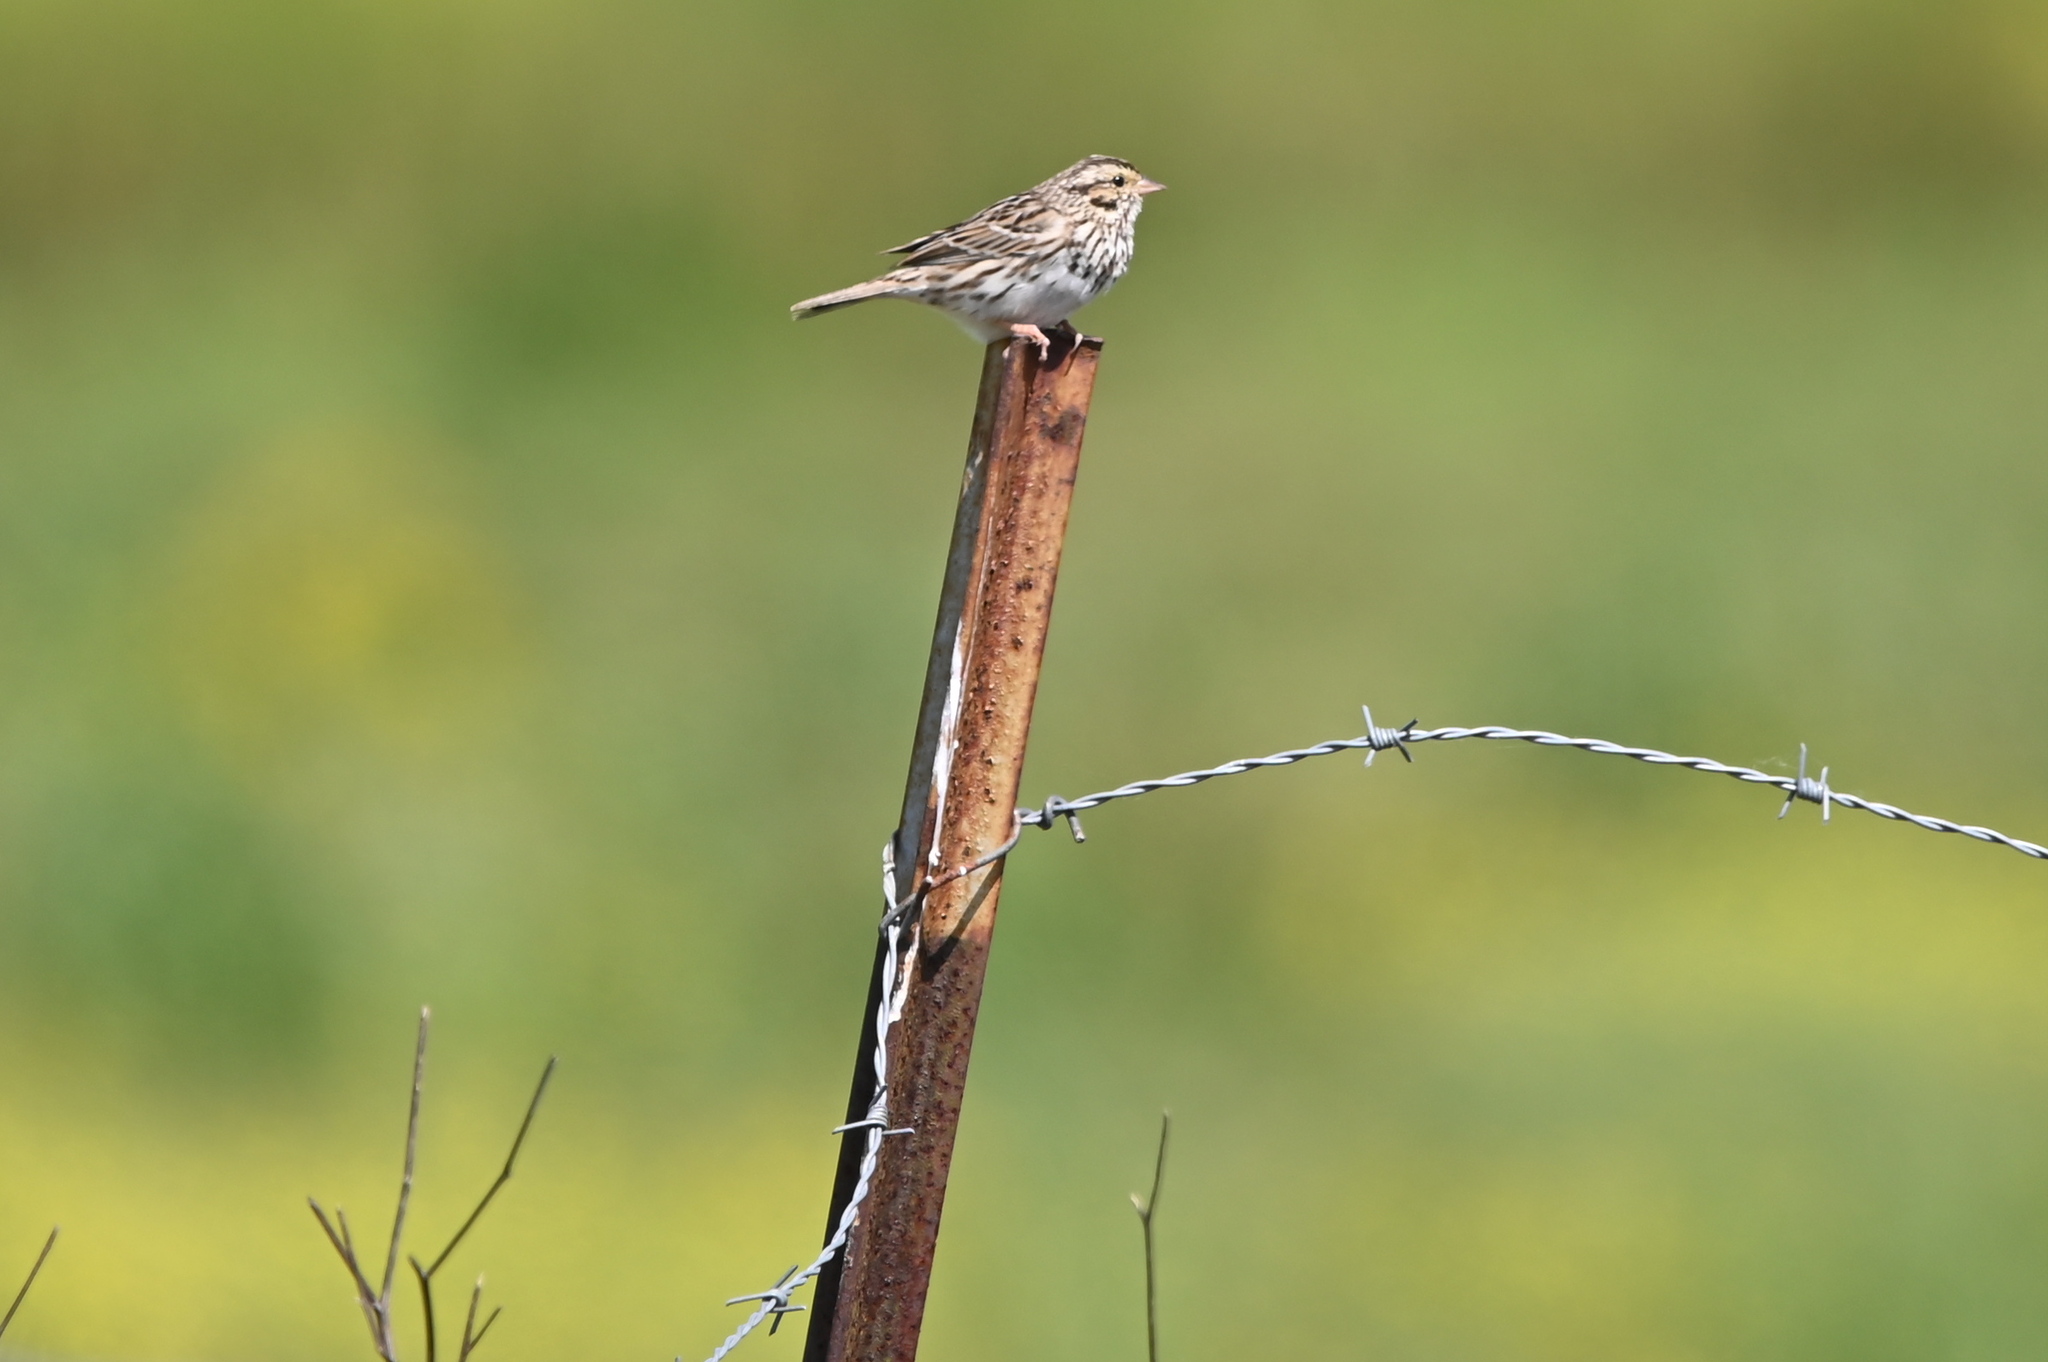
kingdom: Animalia
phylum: Chordata
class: Aves
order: Passeriformes
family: Passerellidae
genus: Passerculus
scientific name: Passerculus sandwichensis
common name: Savannah sparrow
